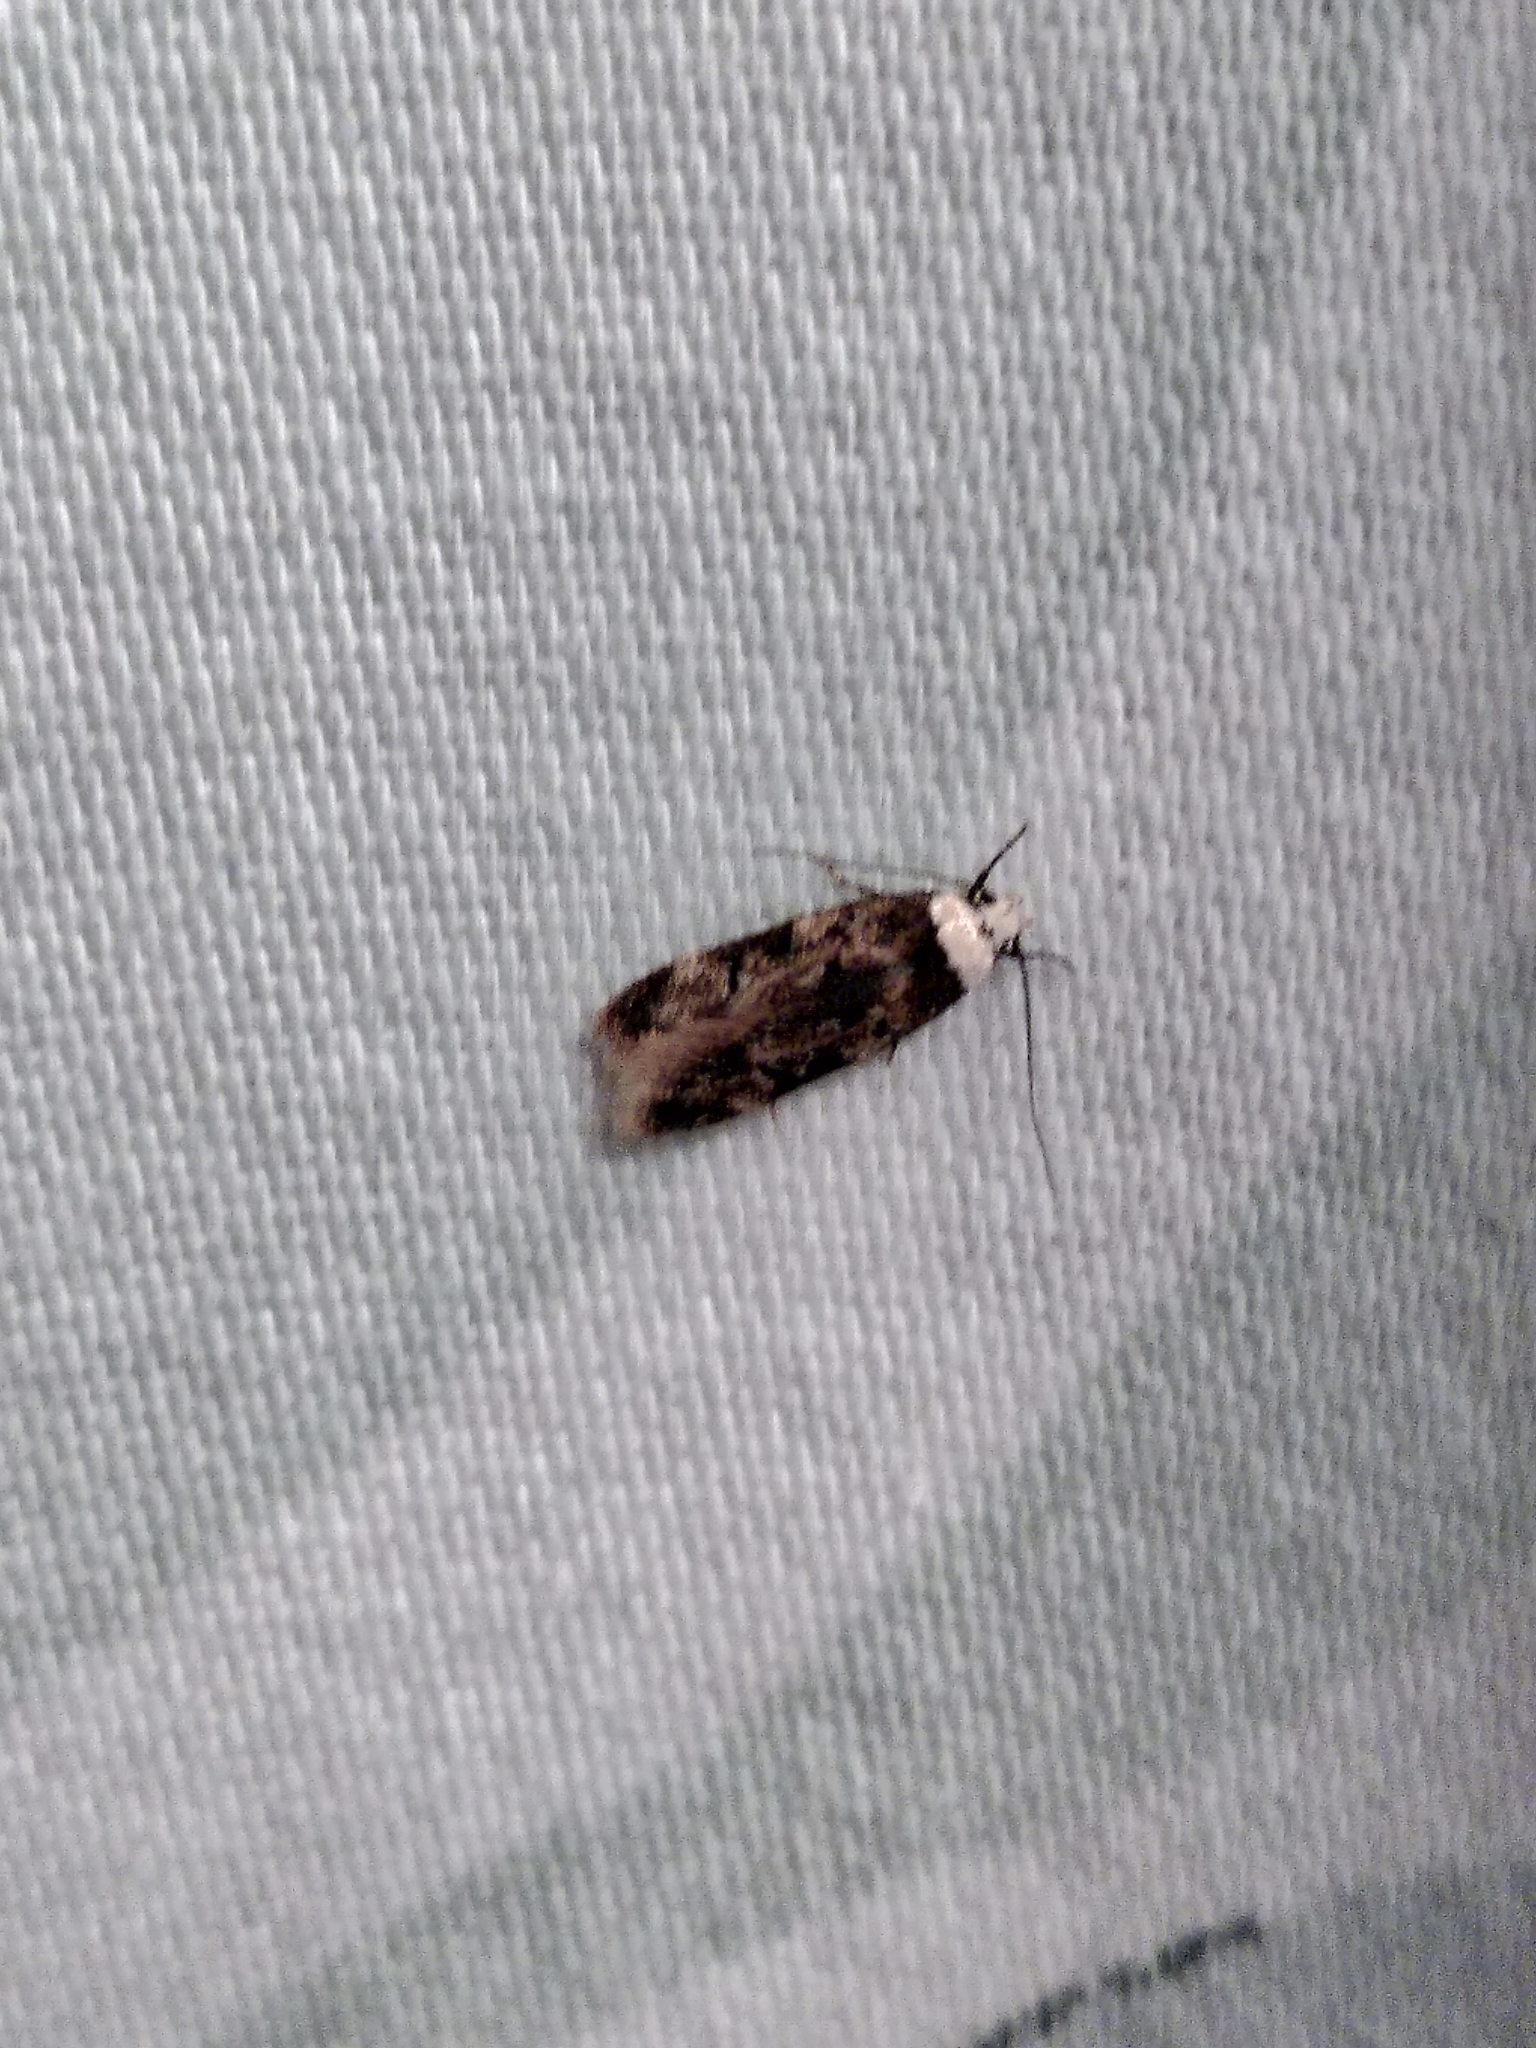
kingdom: Animalia
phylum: Arthropoda
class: Insecta
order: Lepidoptera
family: Oecophoridae
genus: Endrosis
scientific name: Endrosis sarcitrella
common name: White-shouldered house moth
